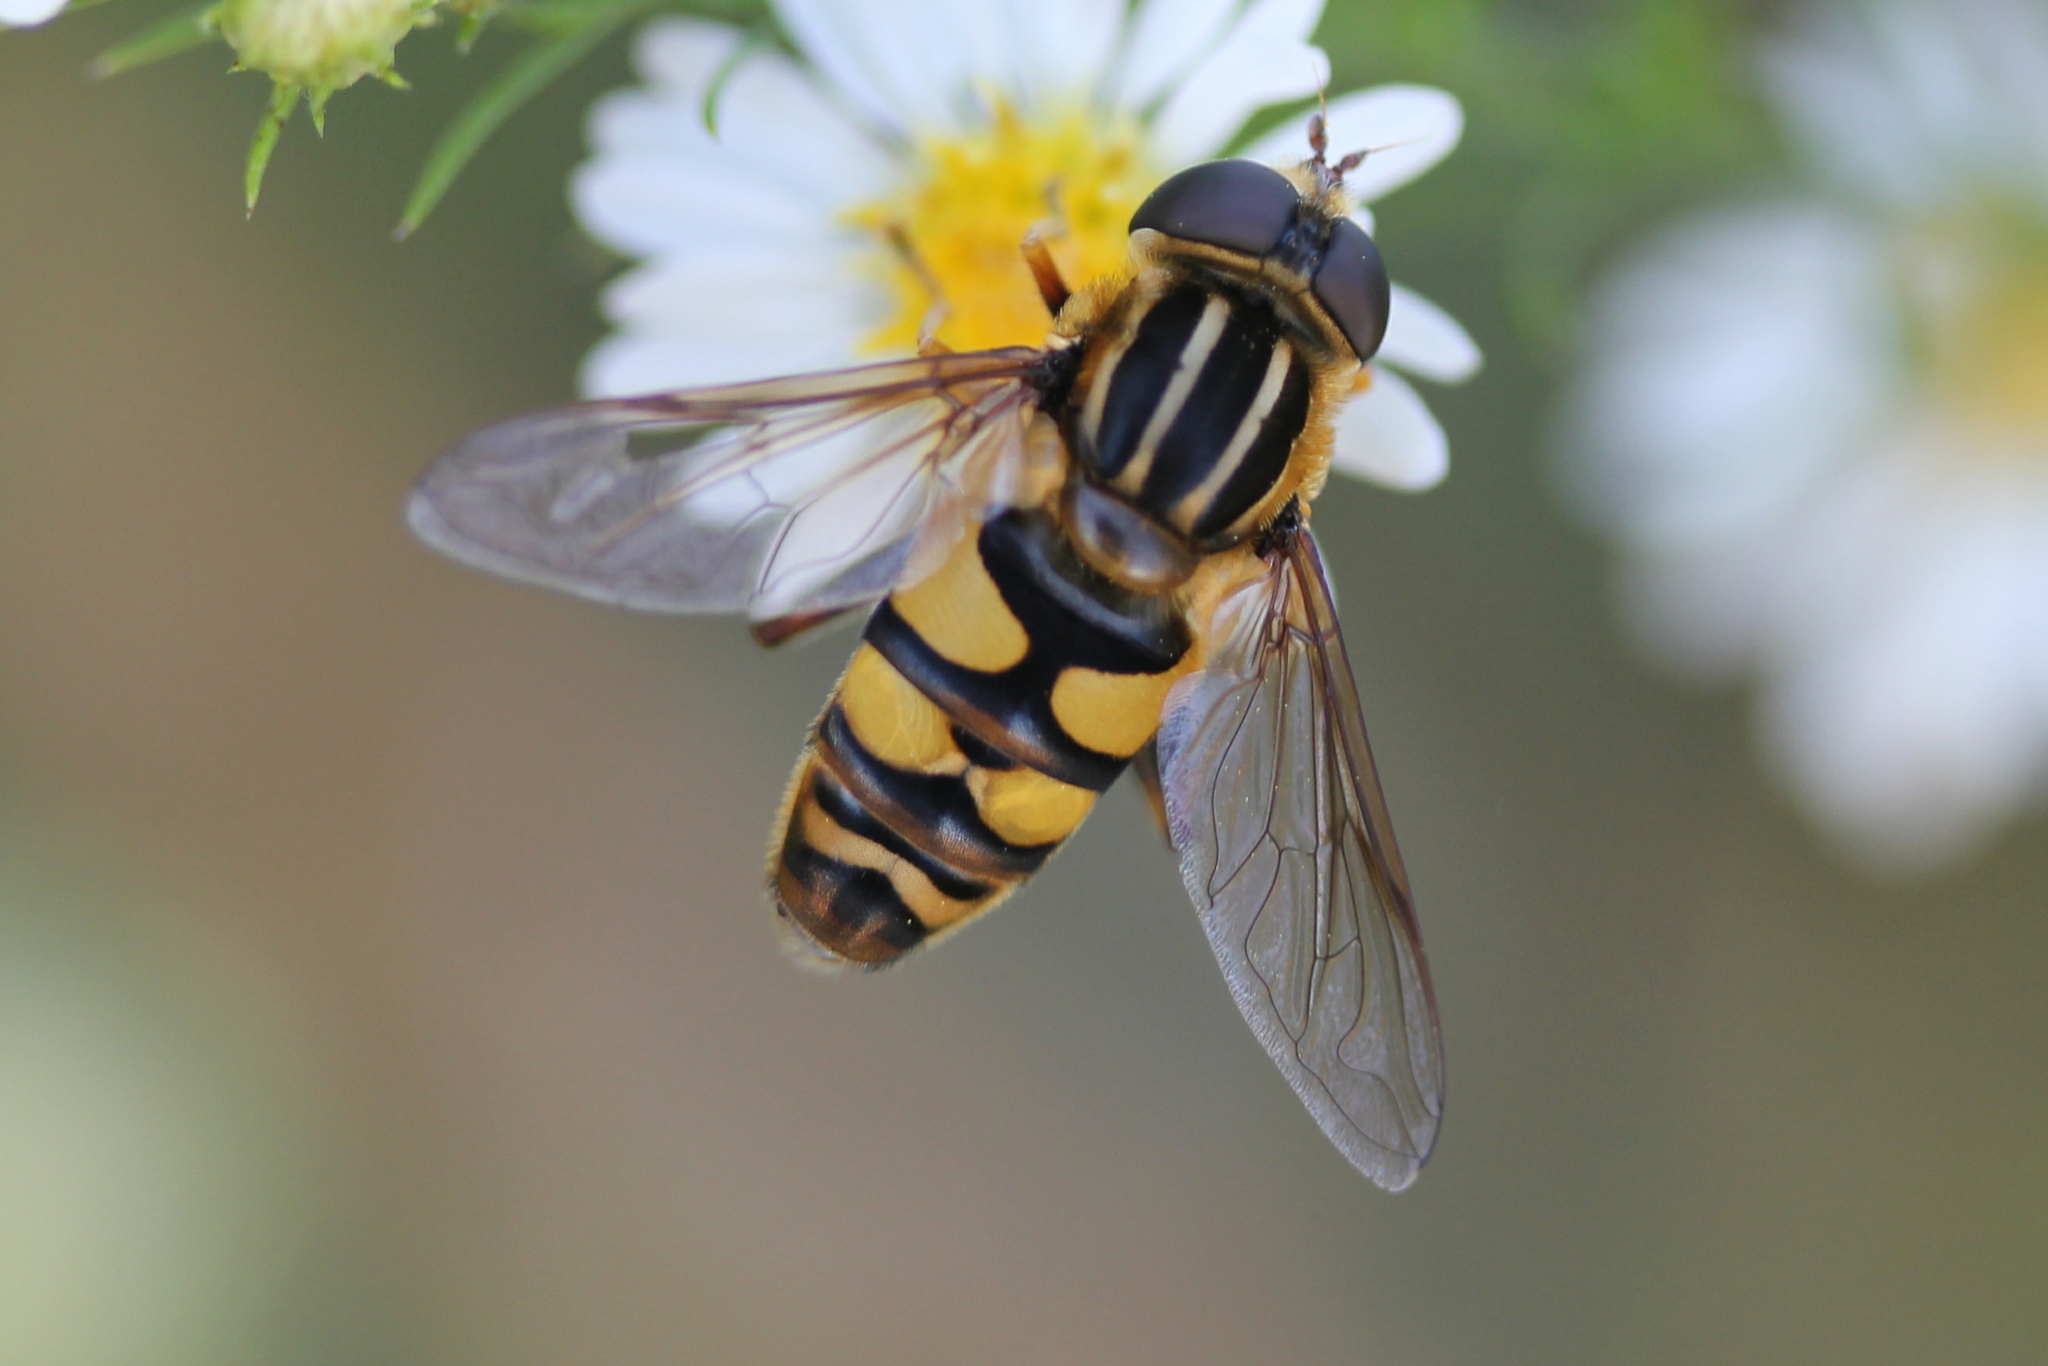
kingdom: Animalia
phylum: Arthropoda
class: Insecta
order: Diptera
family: Syrphidae
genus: Helophilus
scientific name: Helophilus fasciatus
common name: Narrow-headed marsh fly
